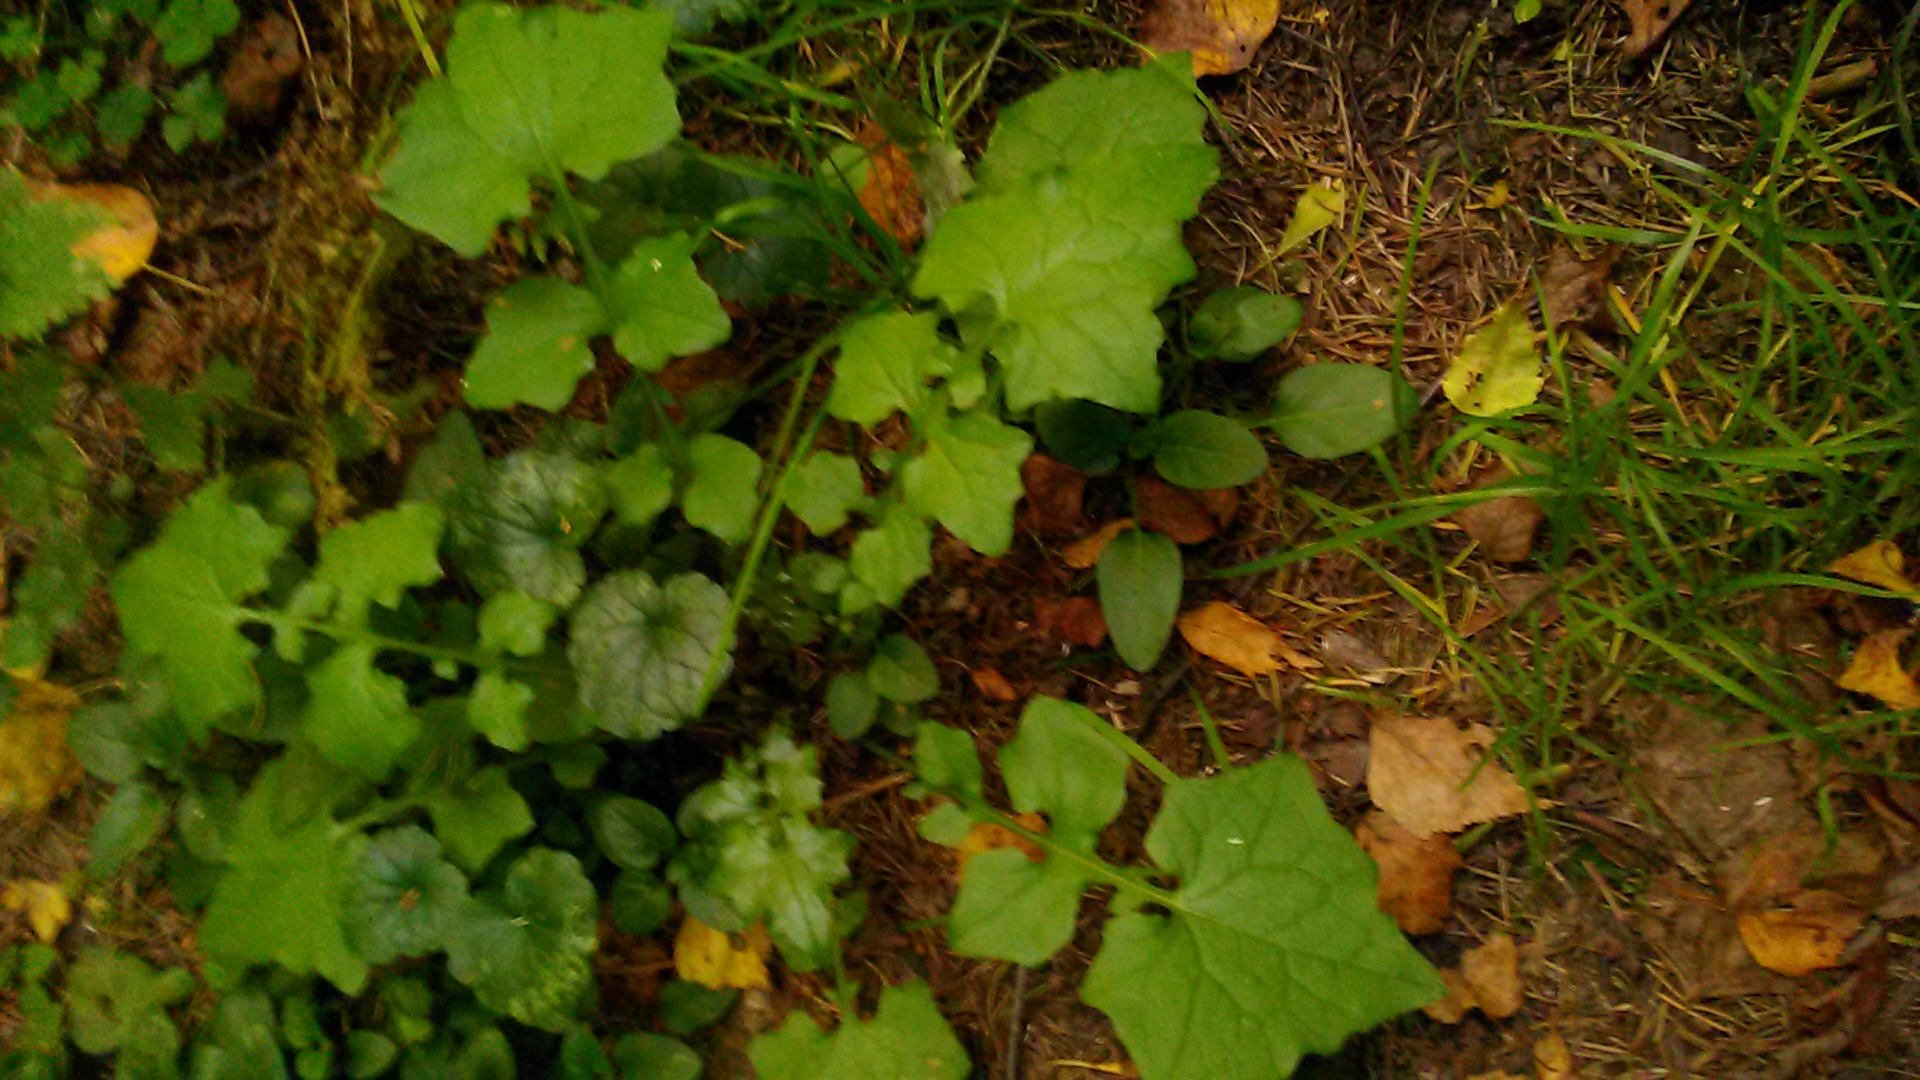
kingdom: Plantae
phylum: Tracheophyta
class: Magnoliopsida
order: Asterales
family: Asteraceae
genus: Mycelis
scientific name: Mycelis muralis
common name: Wall lettuce
